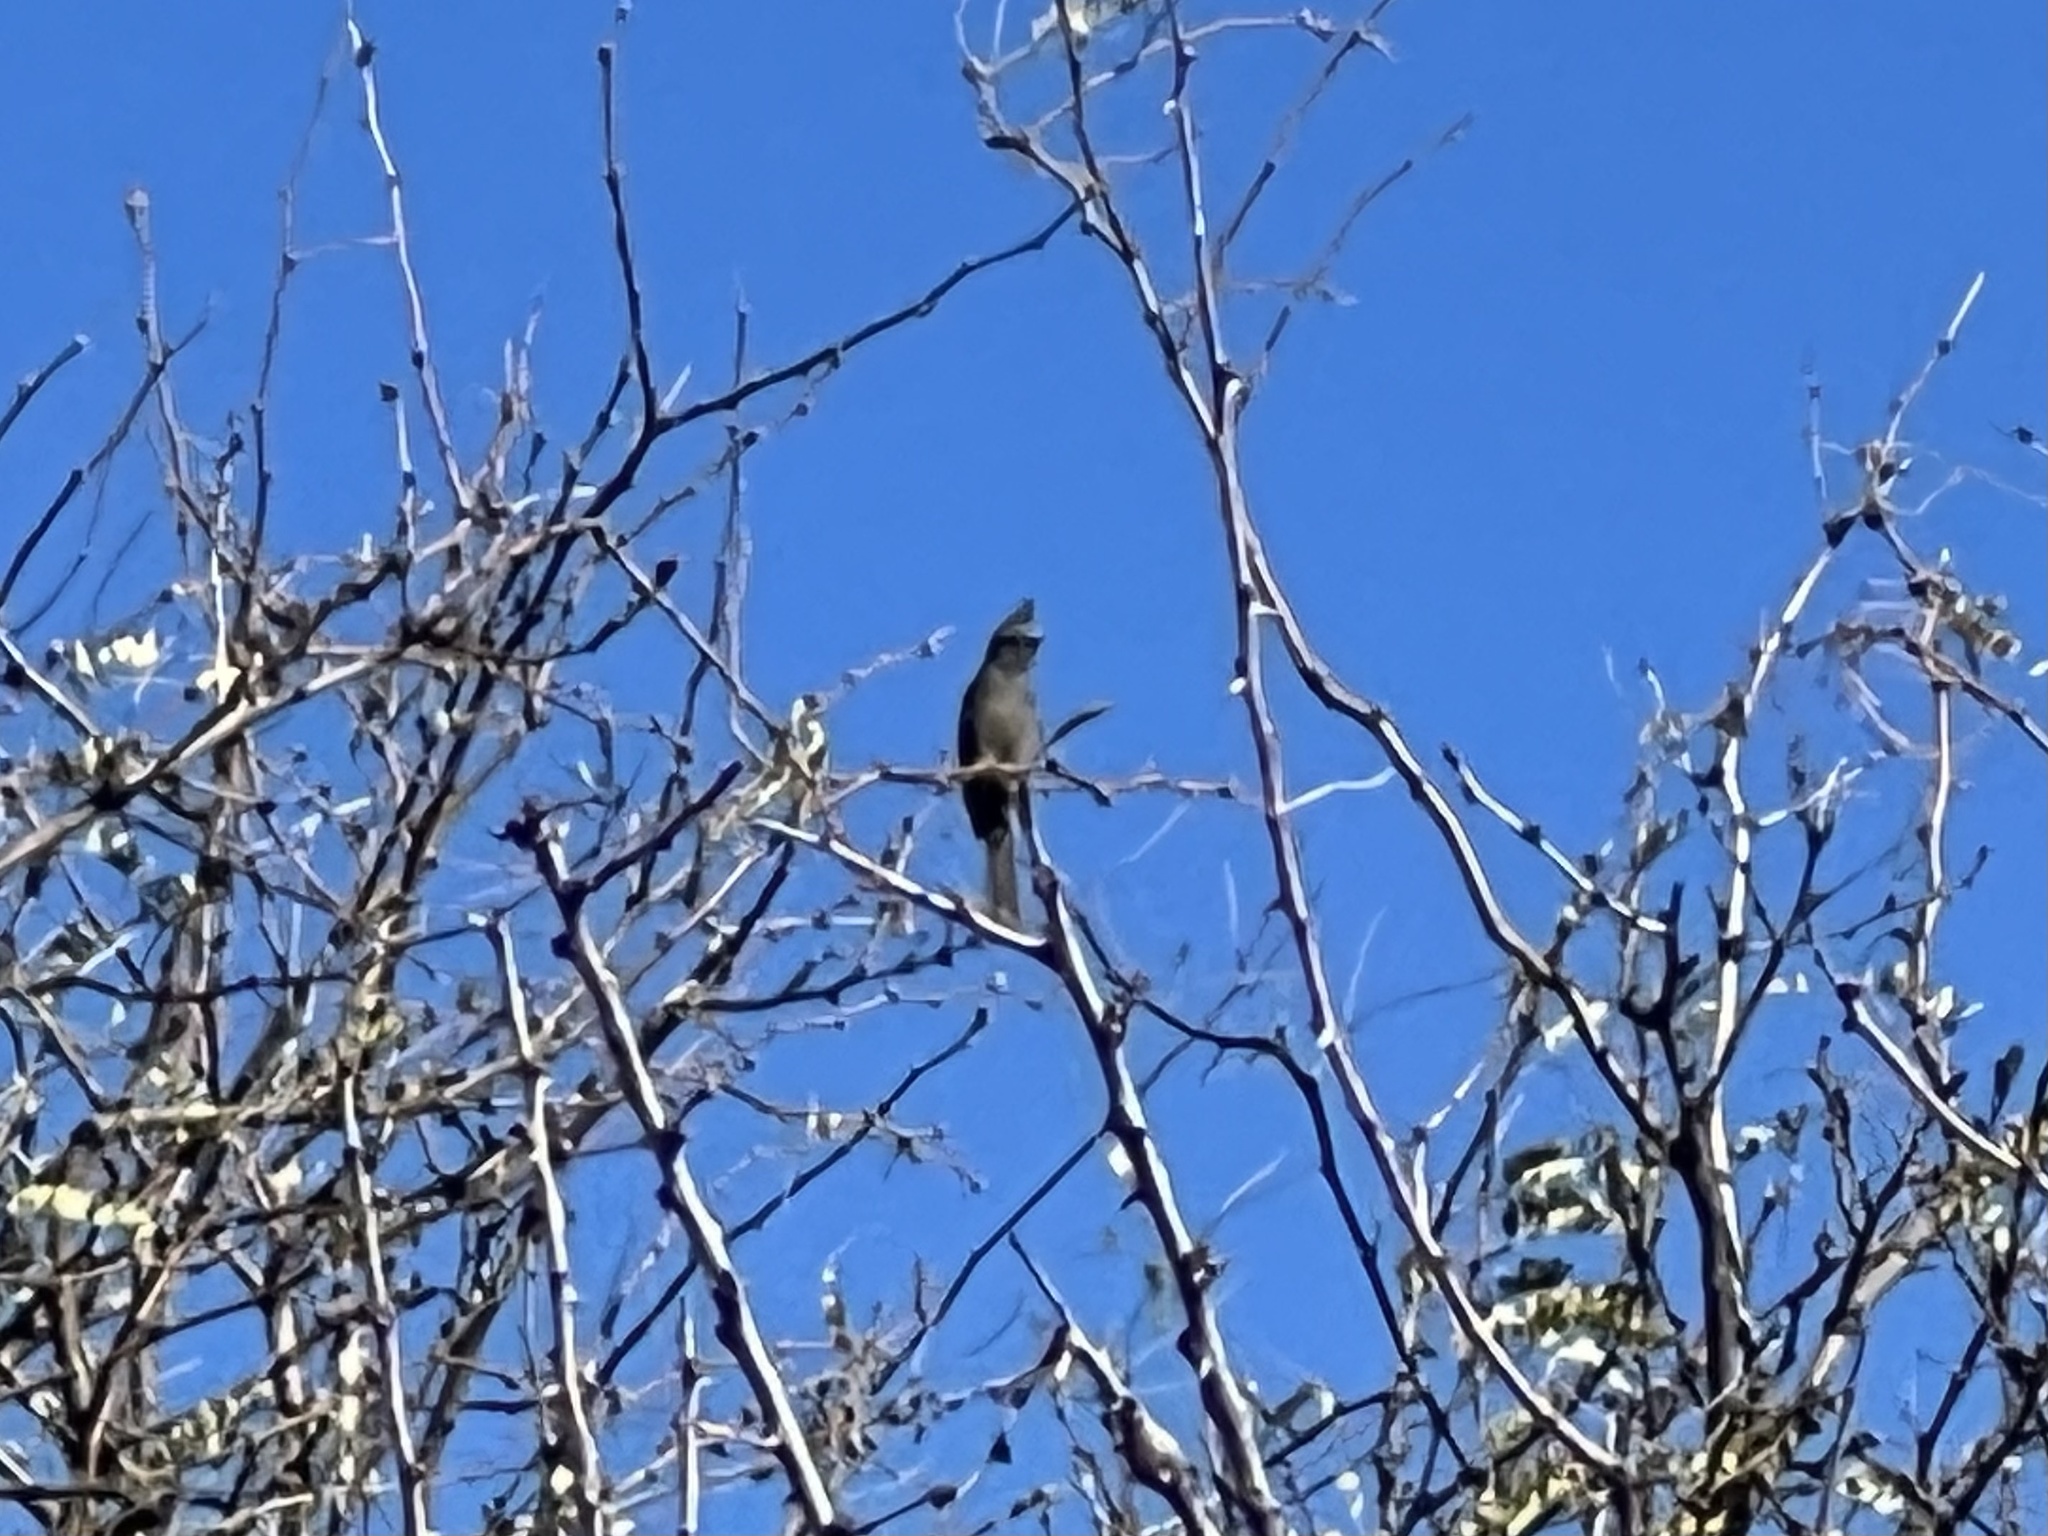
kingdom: Animalia
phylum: Chordata
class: Aves
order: Passeriformes
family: Ptilogonatidae
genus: Phainopepla
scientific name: Phainopepla nitens
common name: Phainopepla
